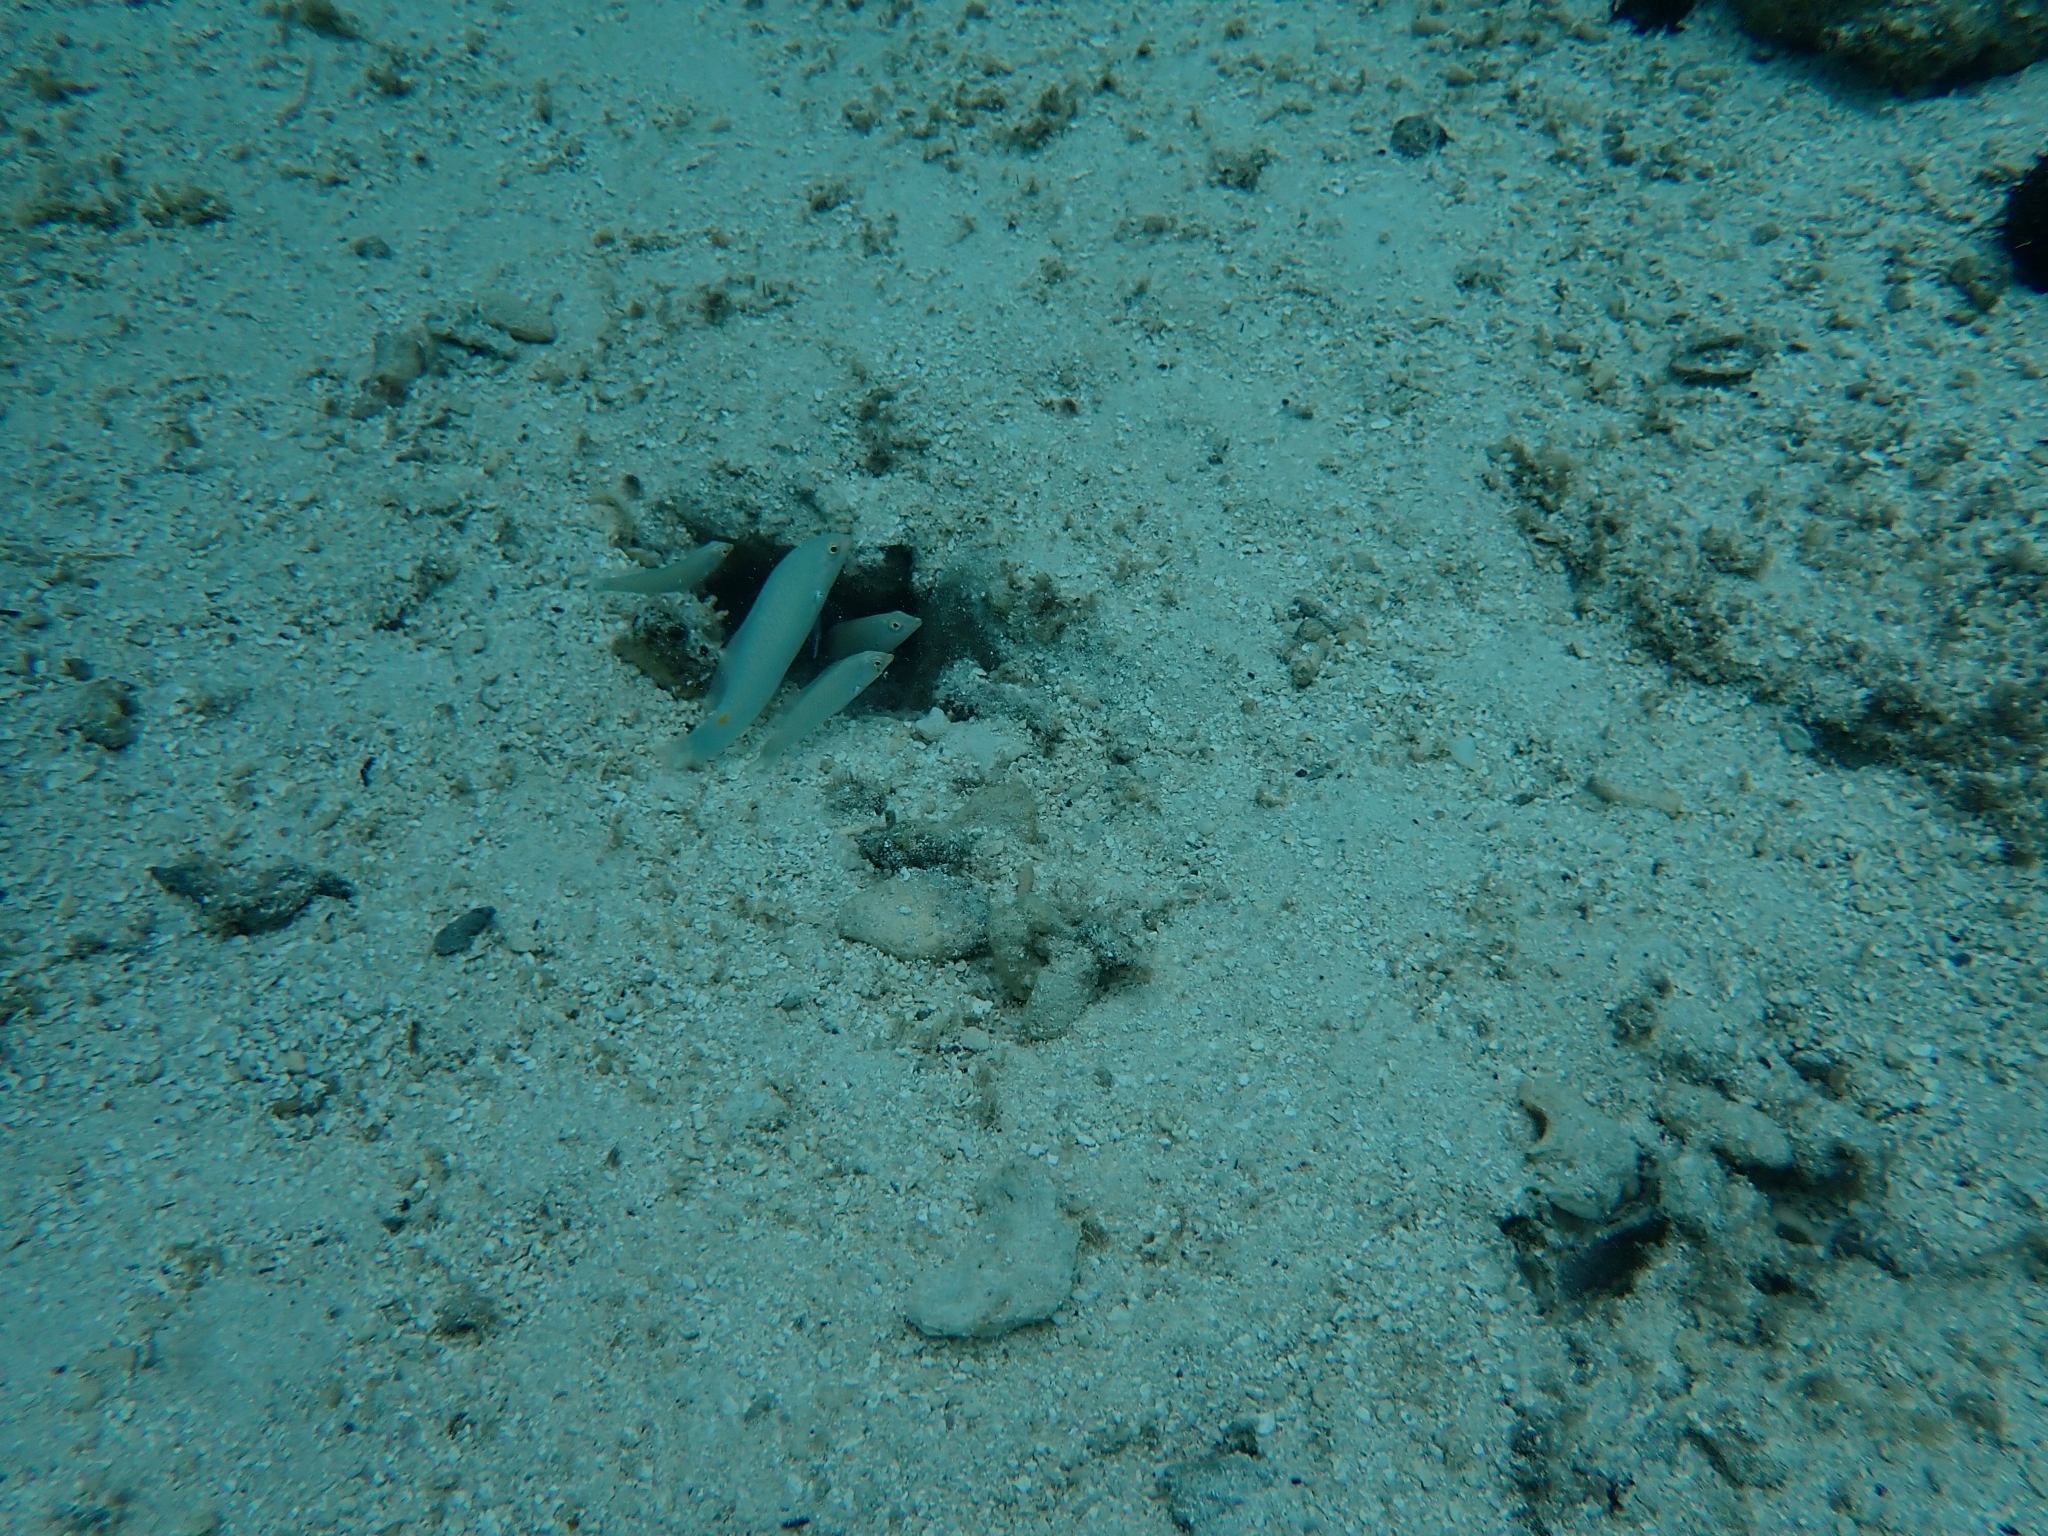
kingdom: Animalia
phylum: Chordata
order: Perciformes
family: Labridae
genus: Halichoeres
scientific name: Halichoeres trimaculatus
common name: Three-spot wrasse
